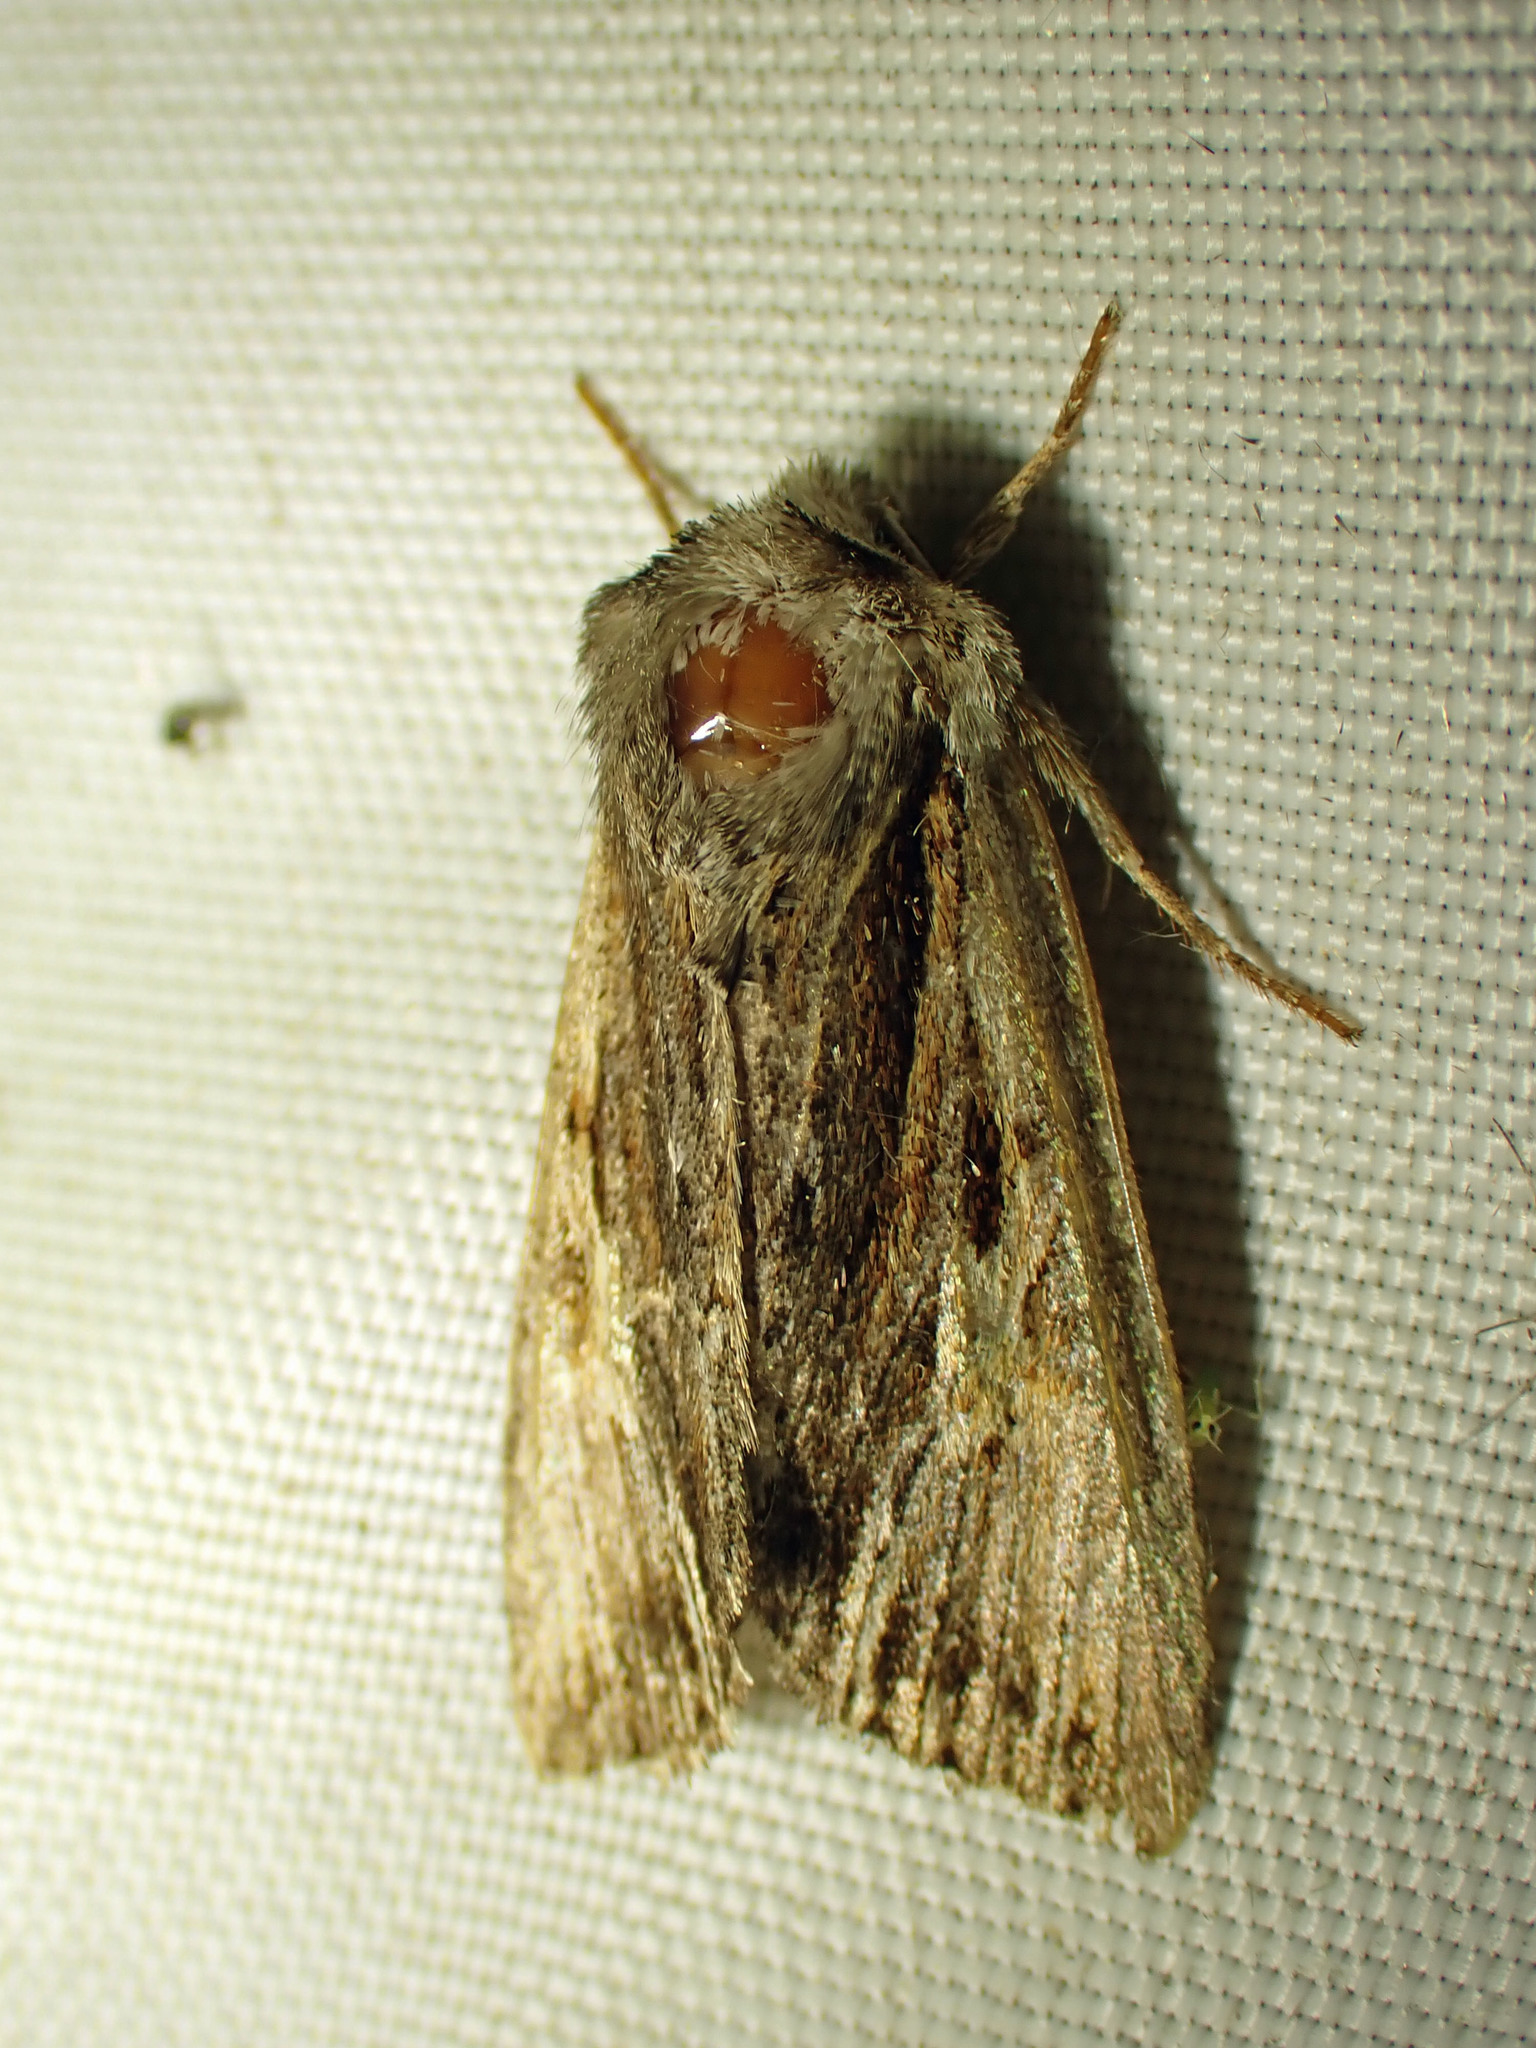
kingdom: Animalia
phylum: Arthropoda
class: Insecta
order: Lepidoptera
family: Noctuidae
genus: Achatia
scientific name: Achatia evicta
